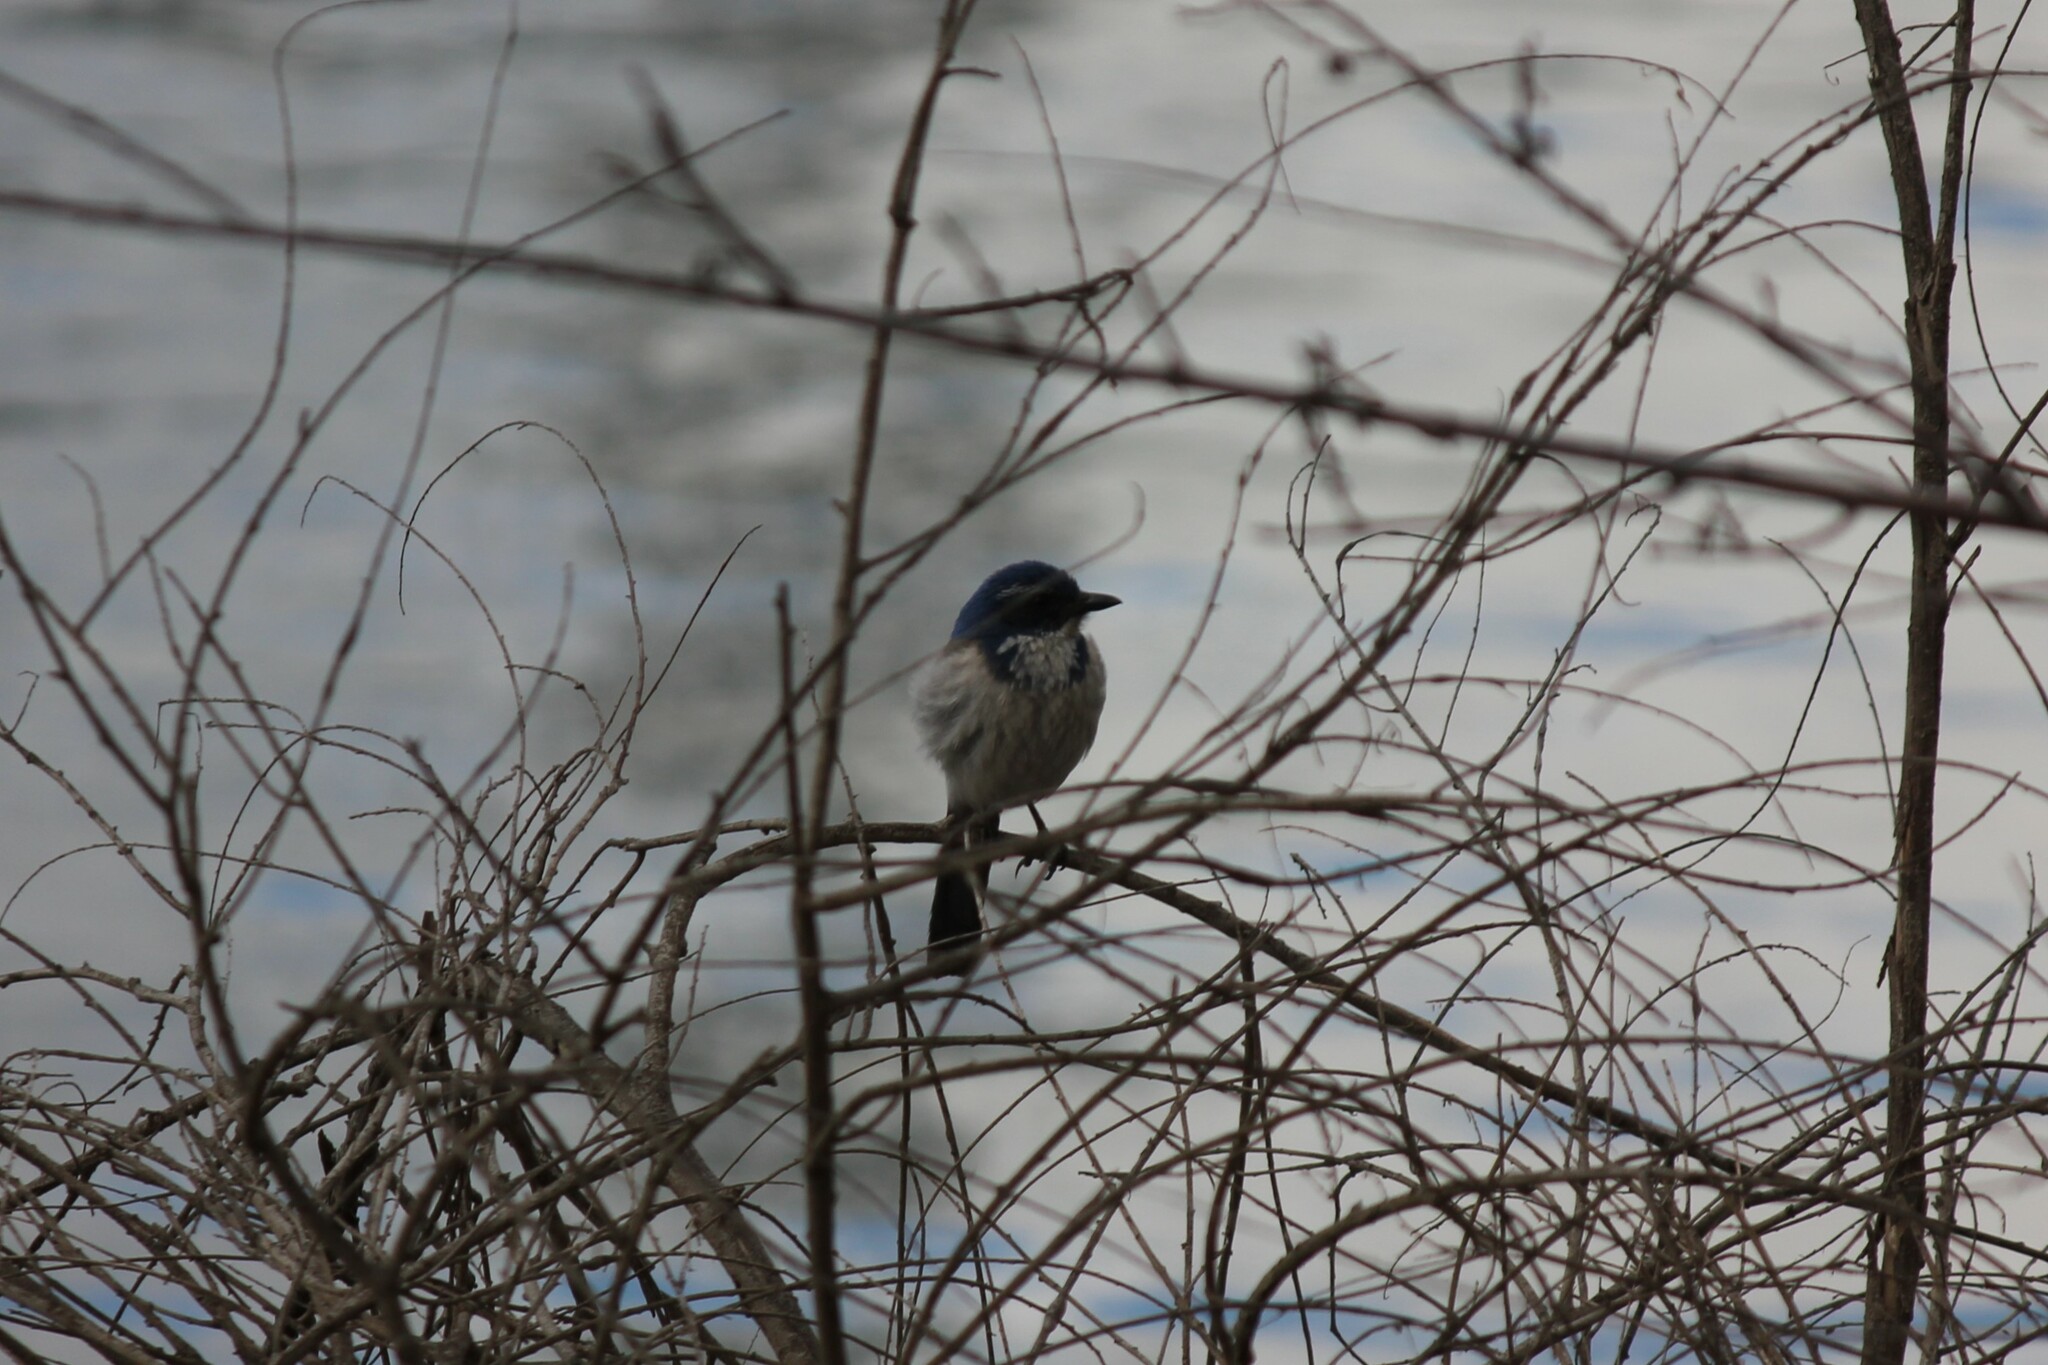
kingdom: Animalia
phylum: Chordata
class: Aves
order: Passeriformes
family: Corvidae
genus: Aphelocoma
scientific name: Aphelocoma californica
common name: California scrub-jay
